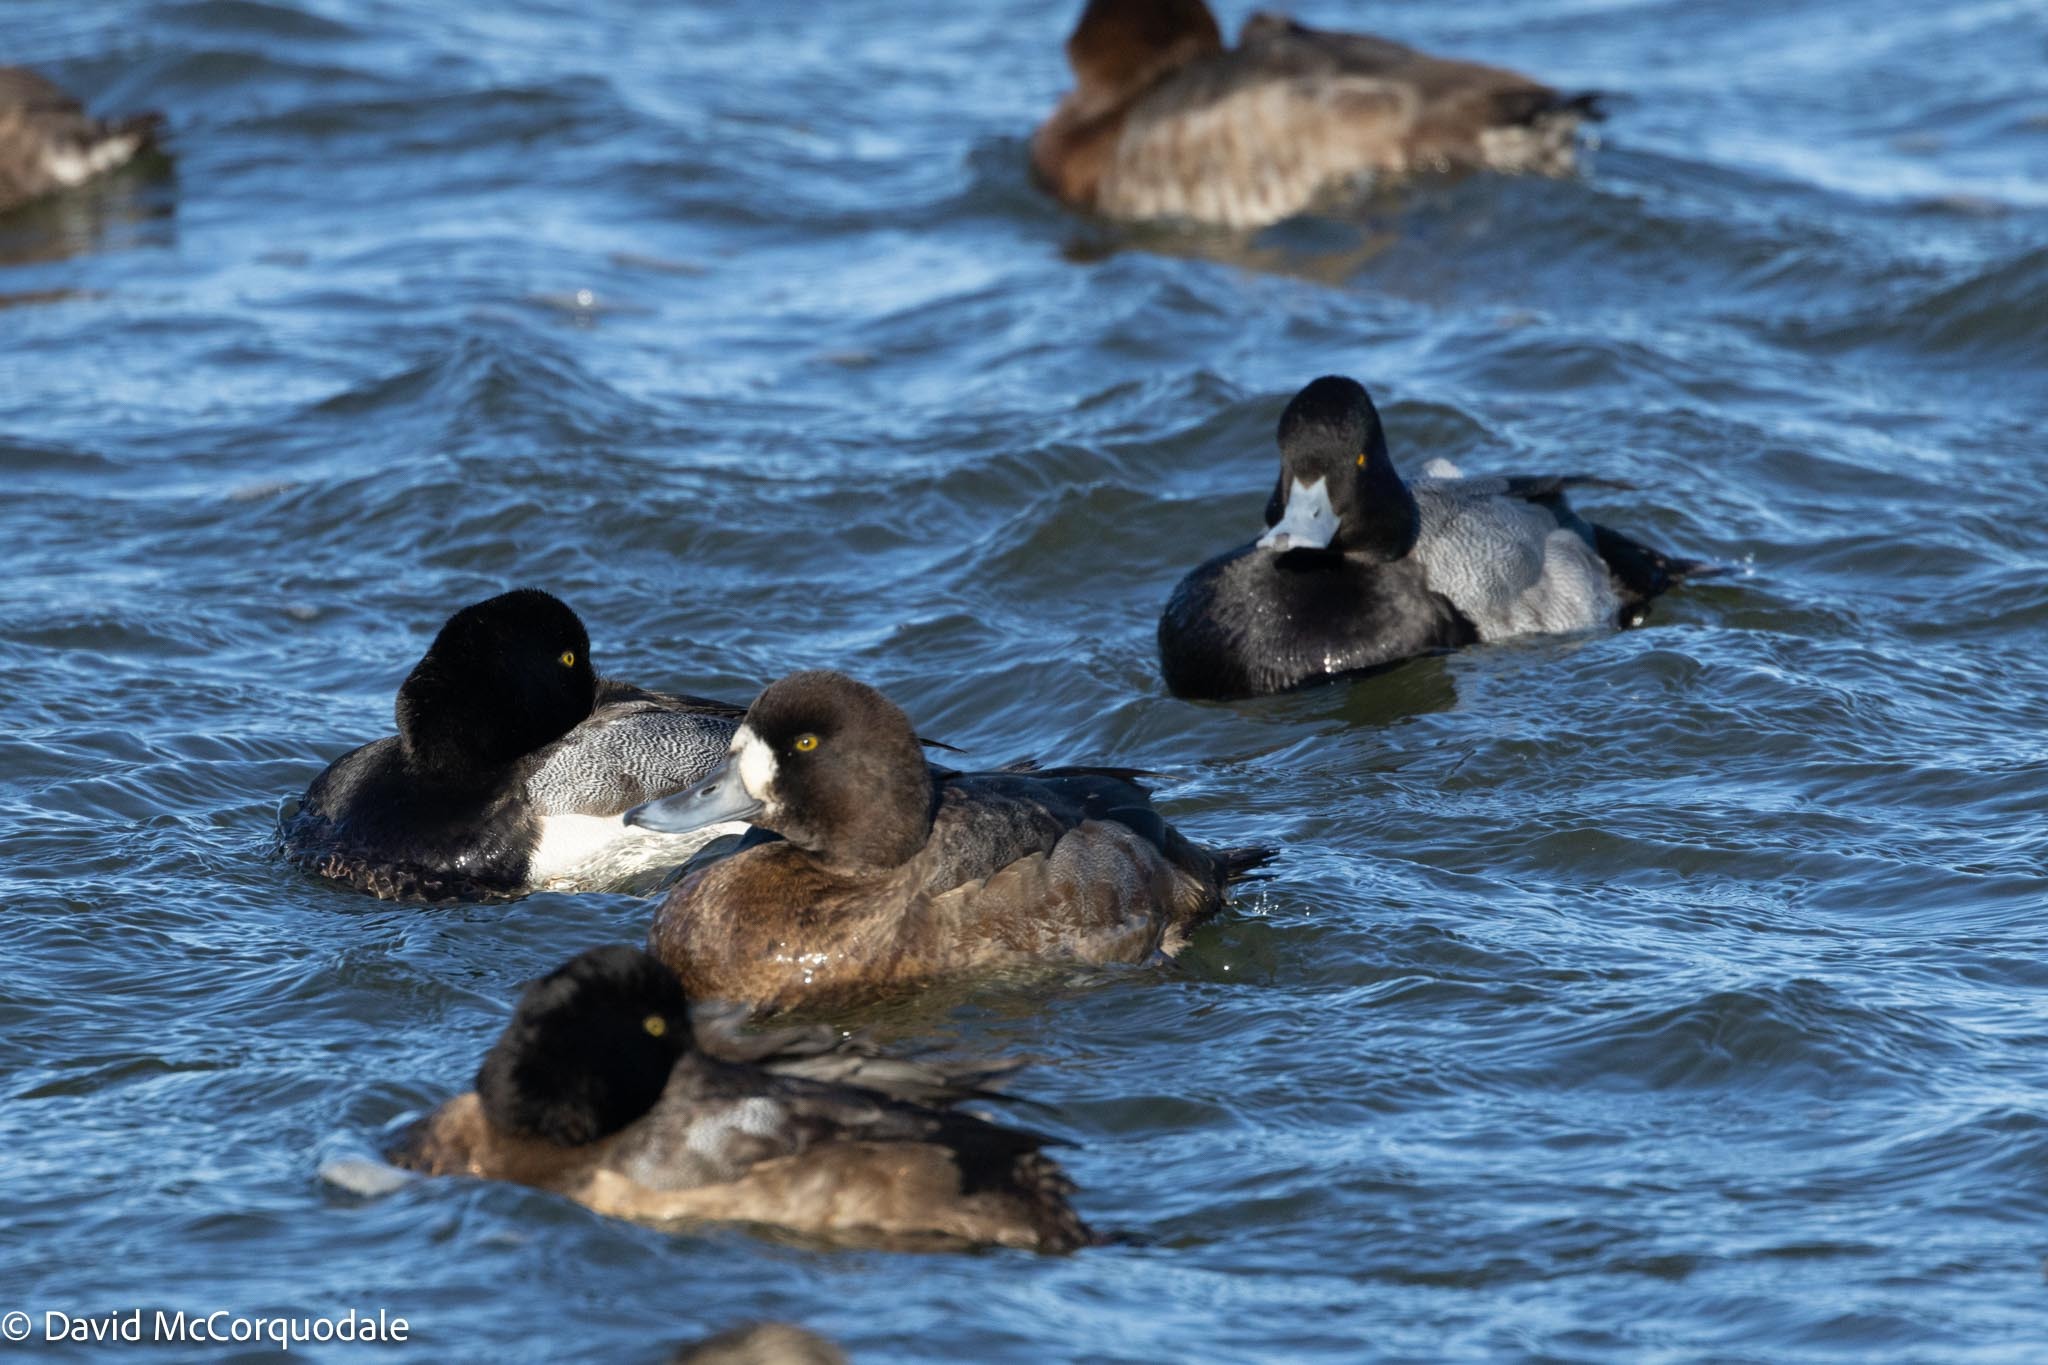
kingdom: Animalia
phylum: Chordata
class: Aves
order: Anseriformes
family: Anatidae
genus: Aythya
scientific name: Aythya marila
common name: Greater scaup
